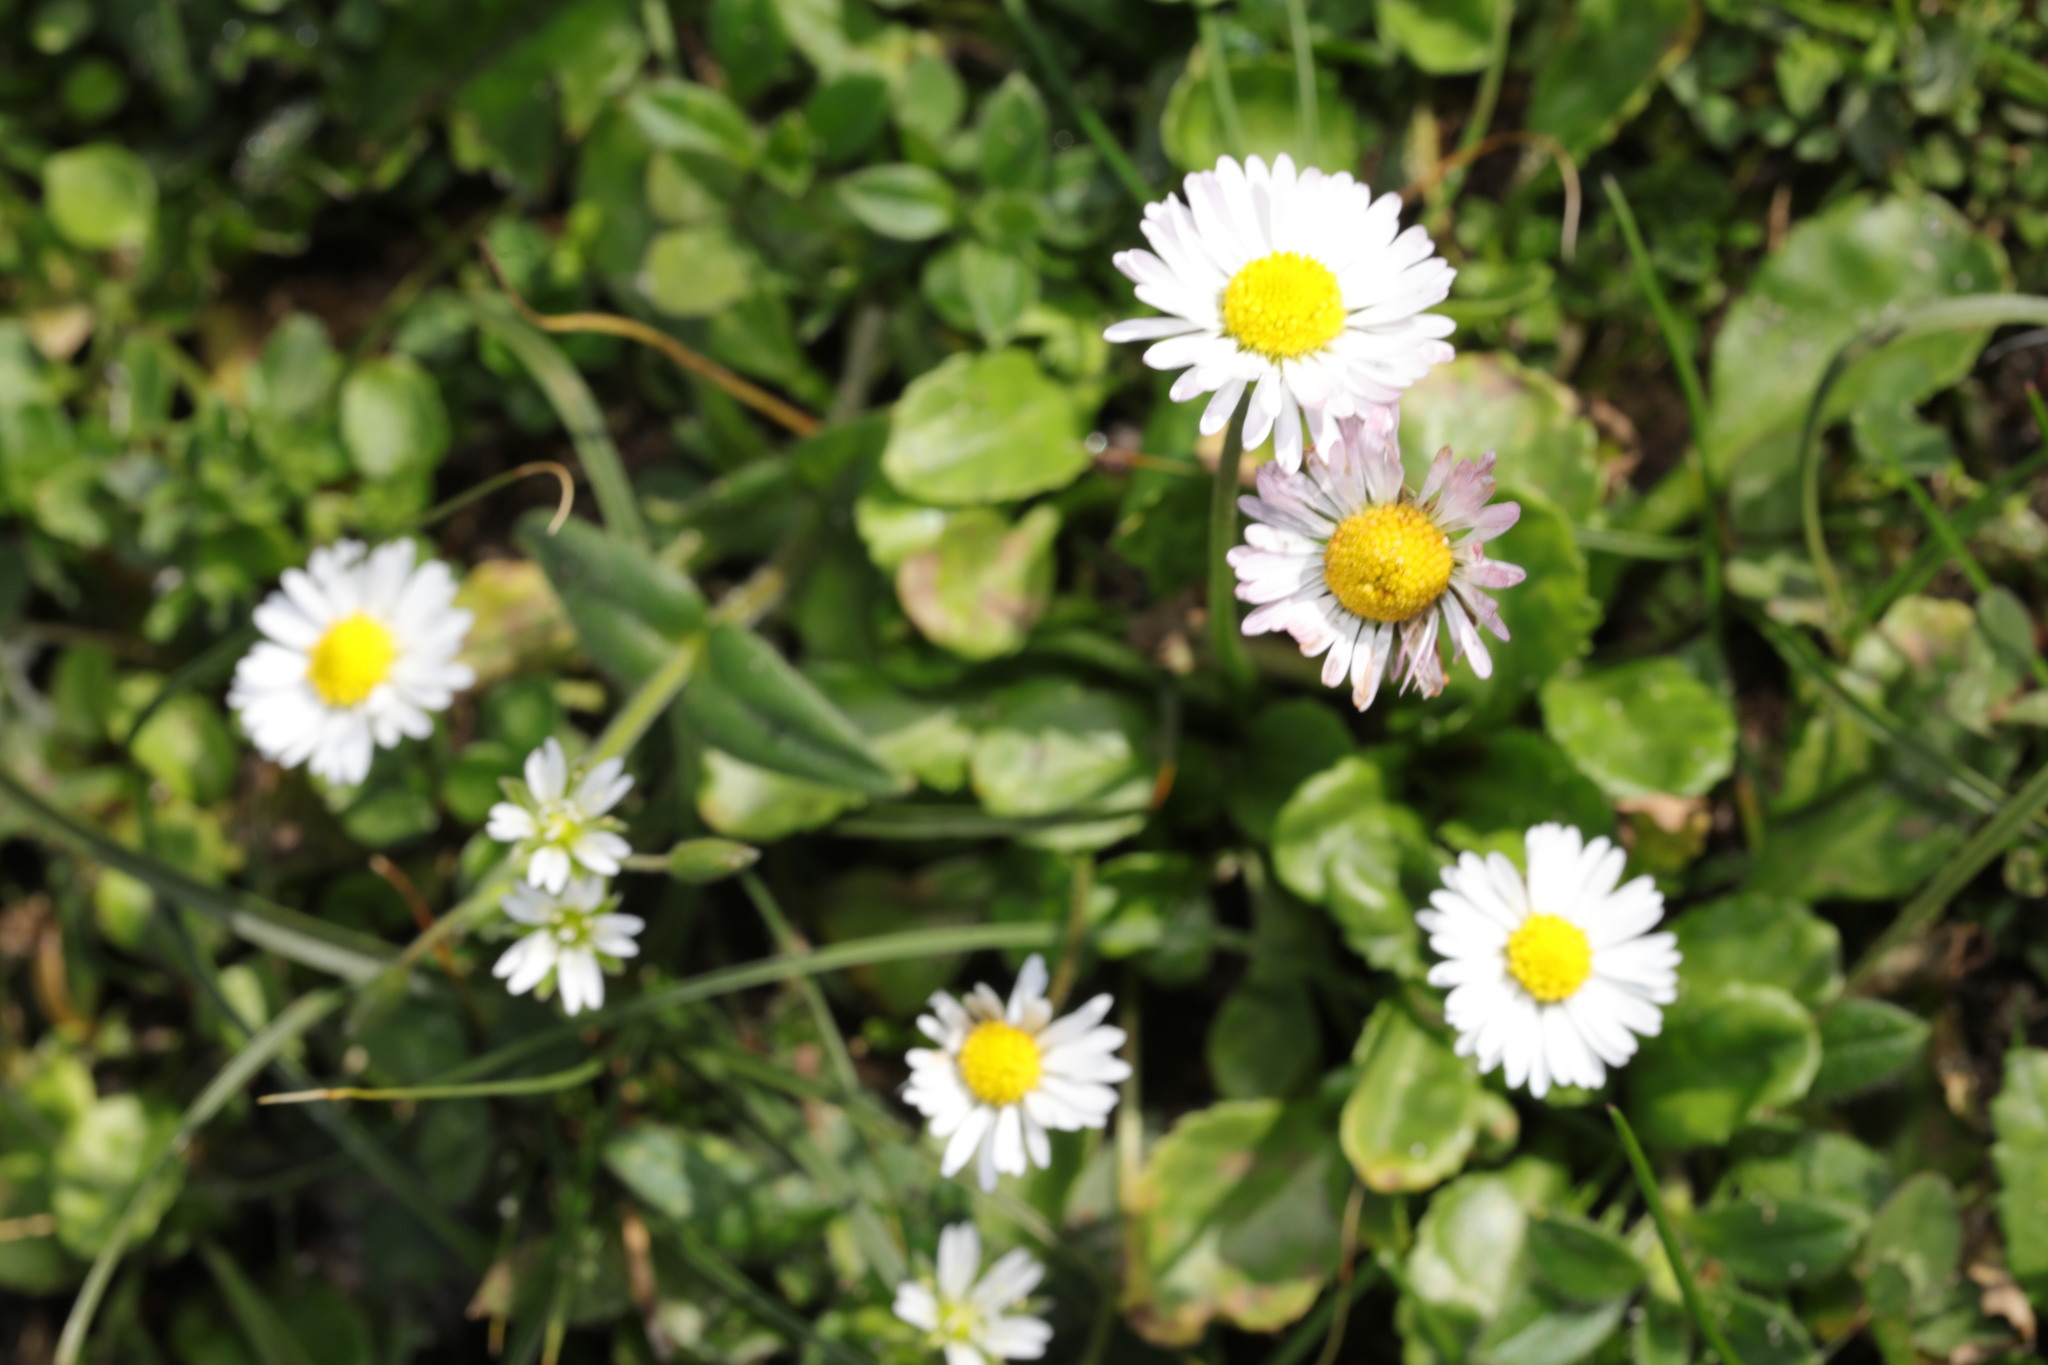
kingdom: Plantae
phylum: Tracheophyta
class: Magnoliopsida
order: Asterales
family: Asteraceae
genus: Bellis
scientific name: Bellis perennis
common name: Lawndaisy
